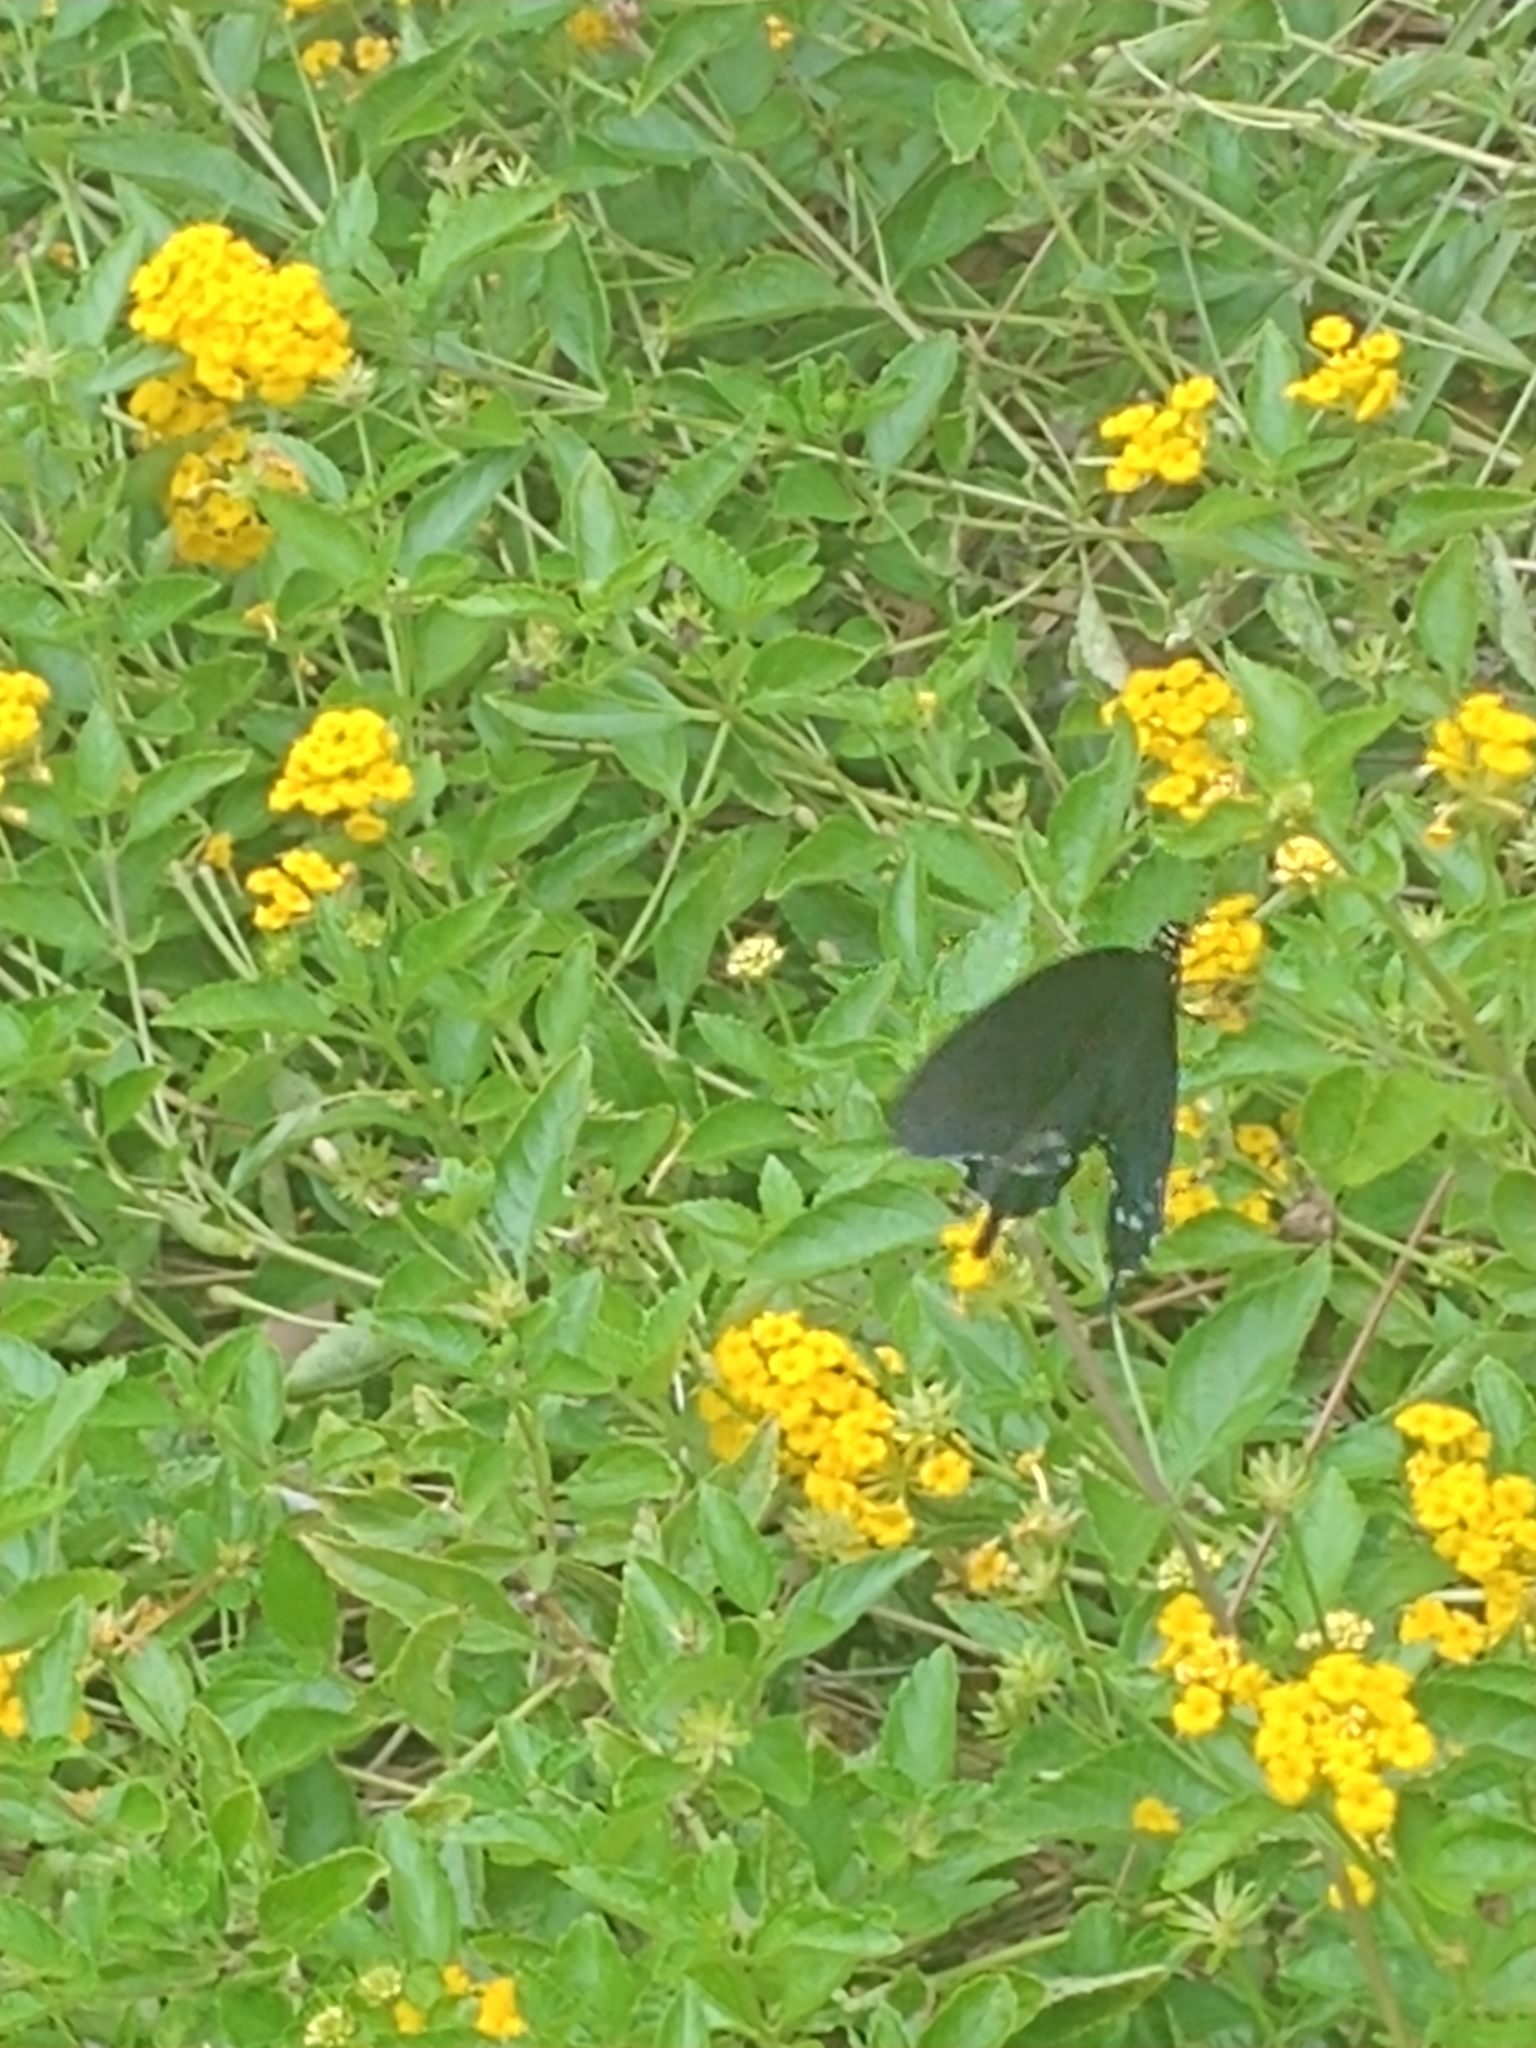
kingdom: Animalia
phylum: Arthropoda
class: Insecta
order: Lepidoptera
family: Papilionidae
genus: Battus
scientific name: Battus philenor
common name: Pipevine swallowtail
